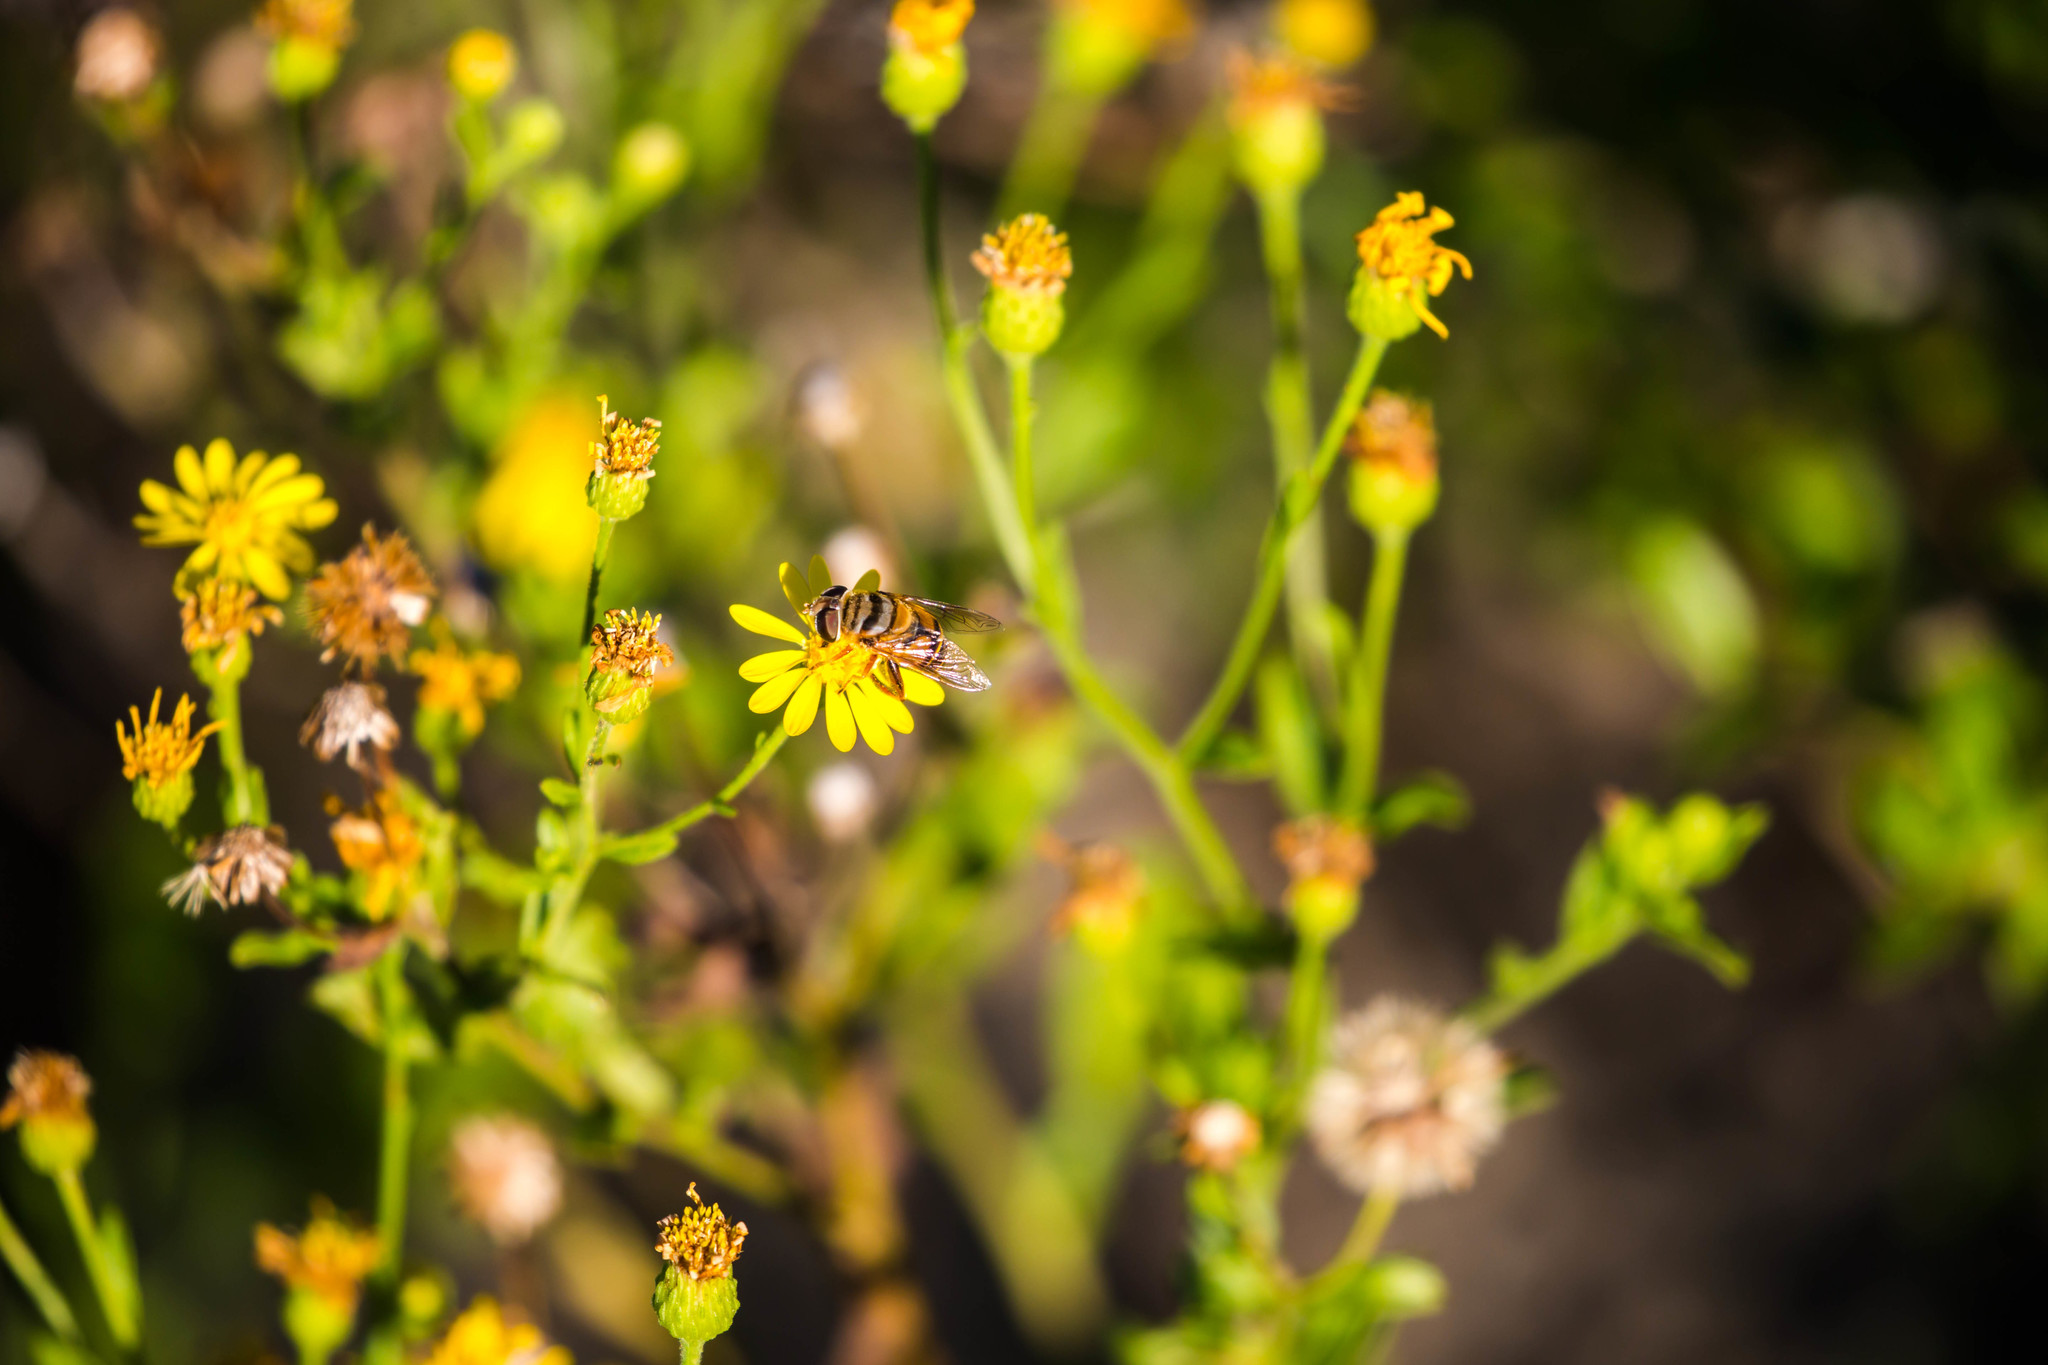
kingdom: Animalia
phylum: Arthropoda
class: Insecta
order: Diptera
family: Syrphidae
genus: Palpada
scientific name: Palpada vinetorum
